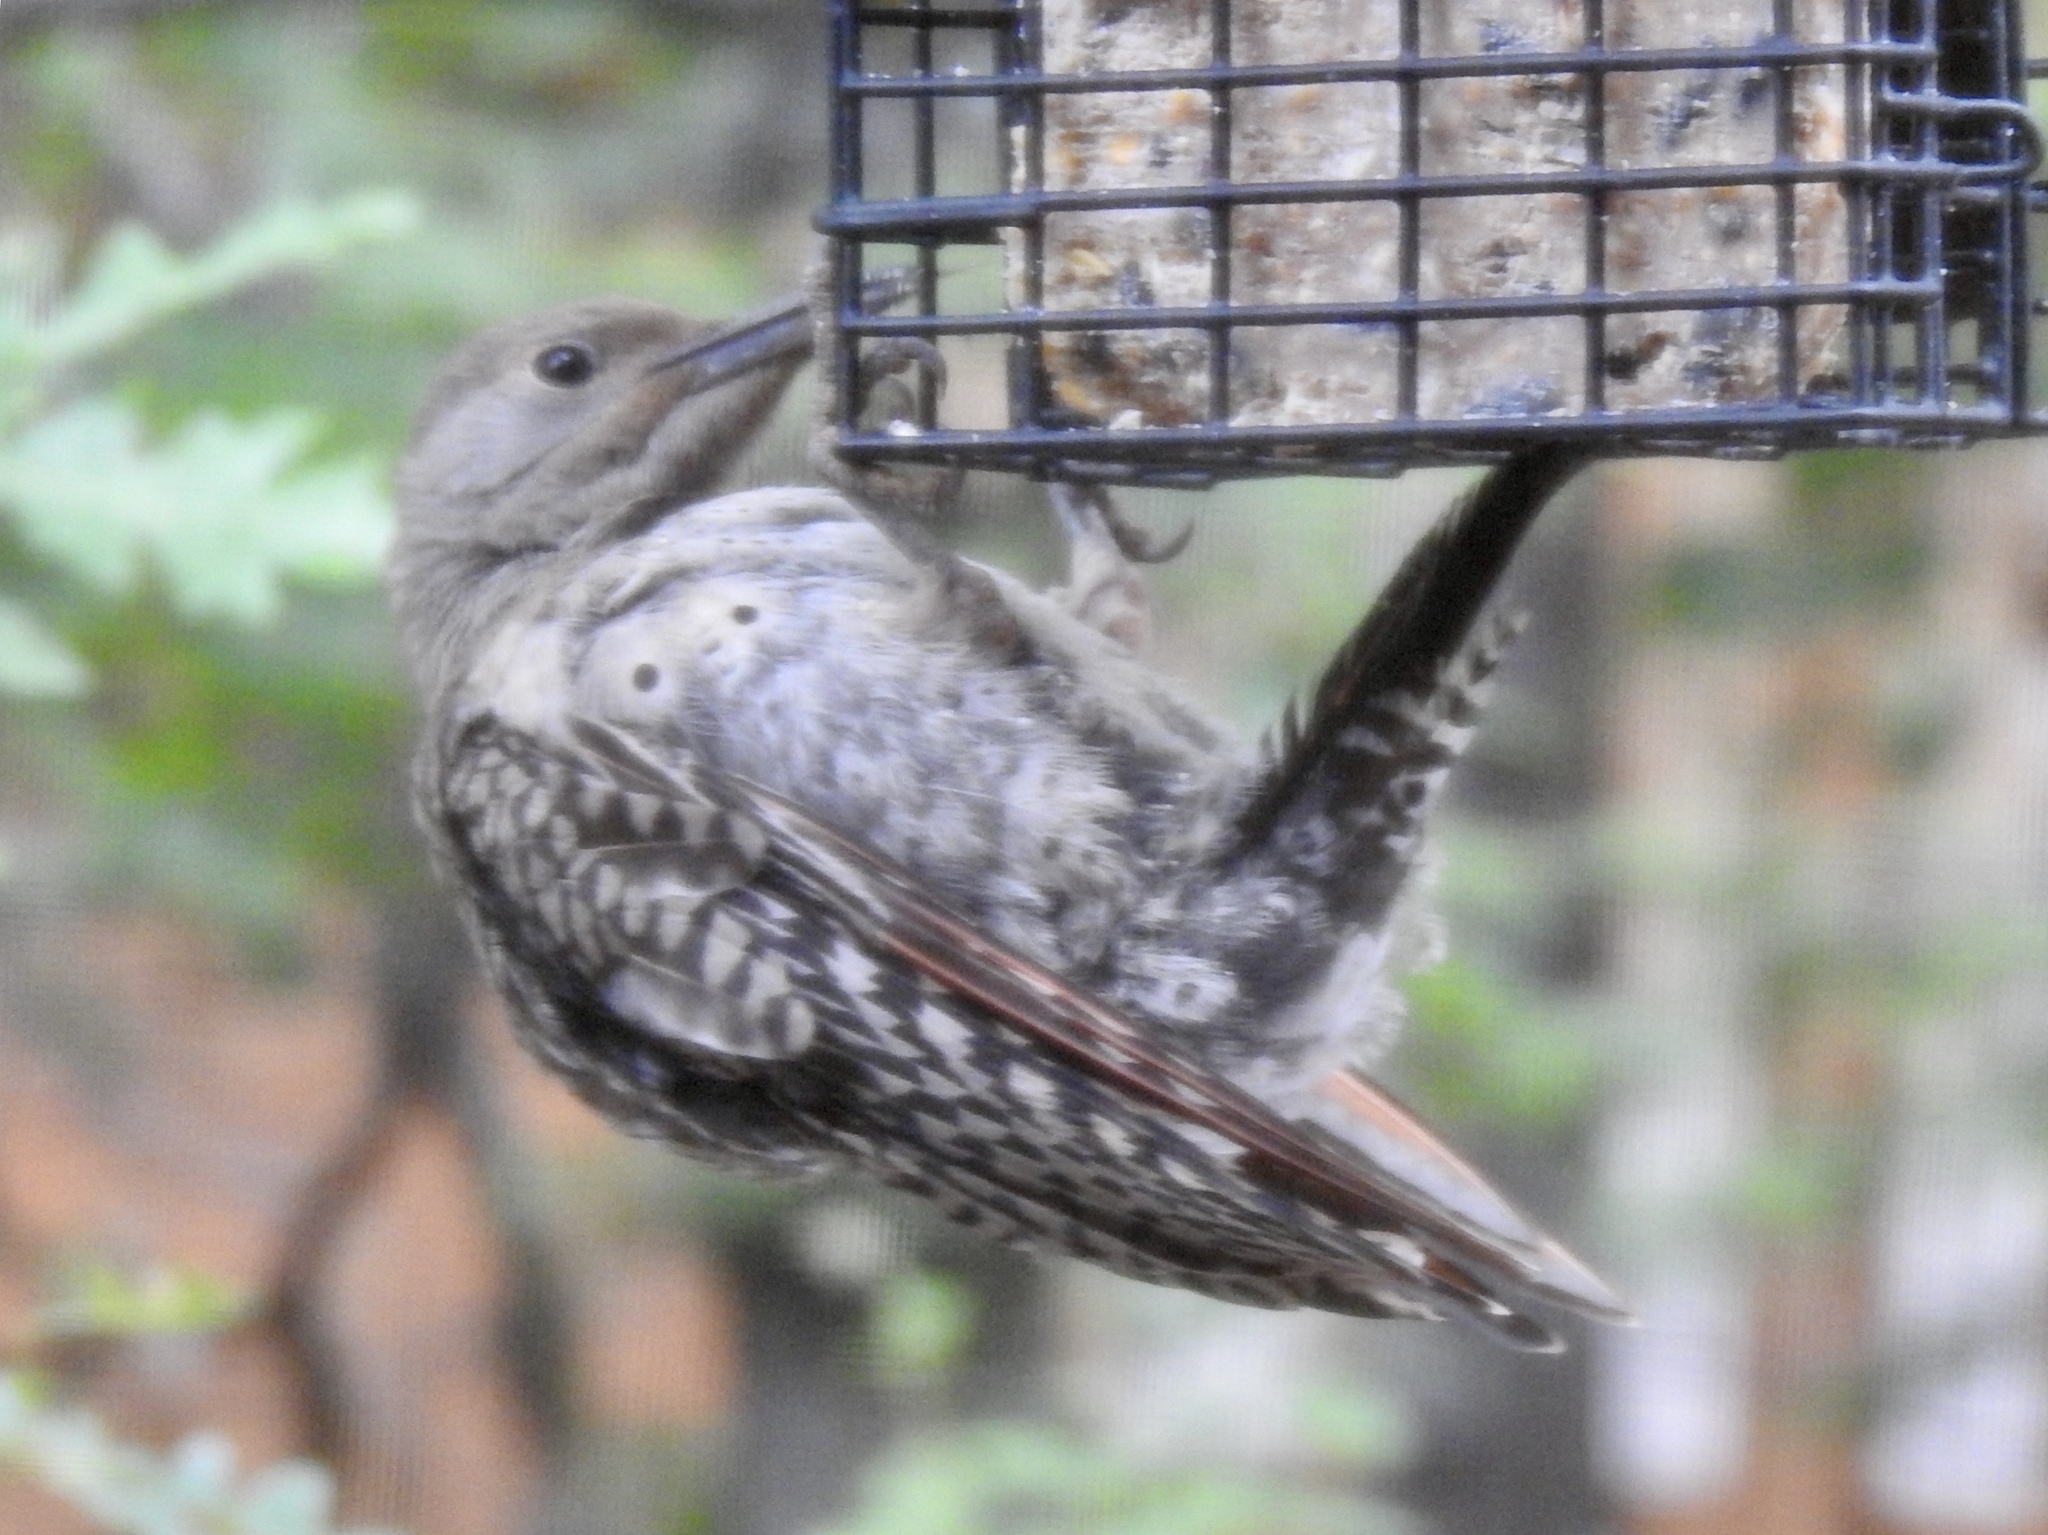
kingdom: Animalia
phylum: Chordata
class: Aves
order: Piciformes
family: Picidae
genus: Colaptes
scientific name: Colaptes auratus
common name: Northern flicker
